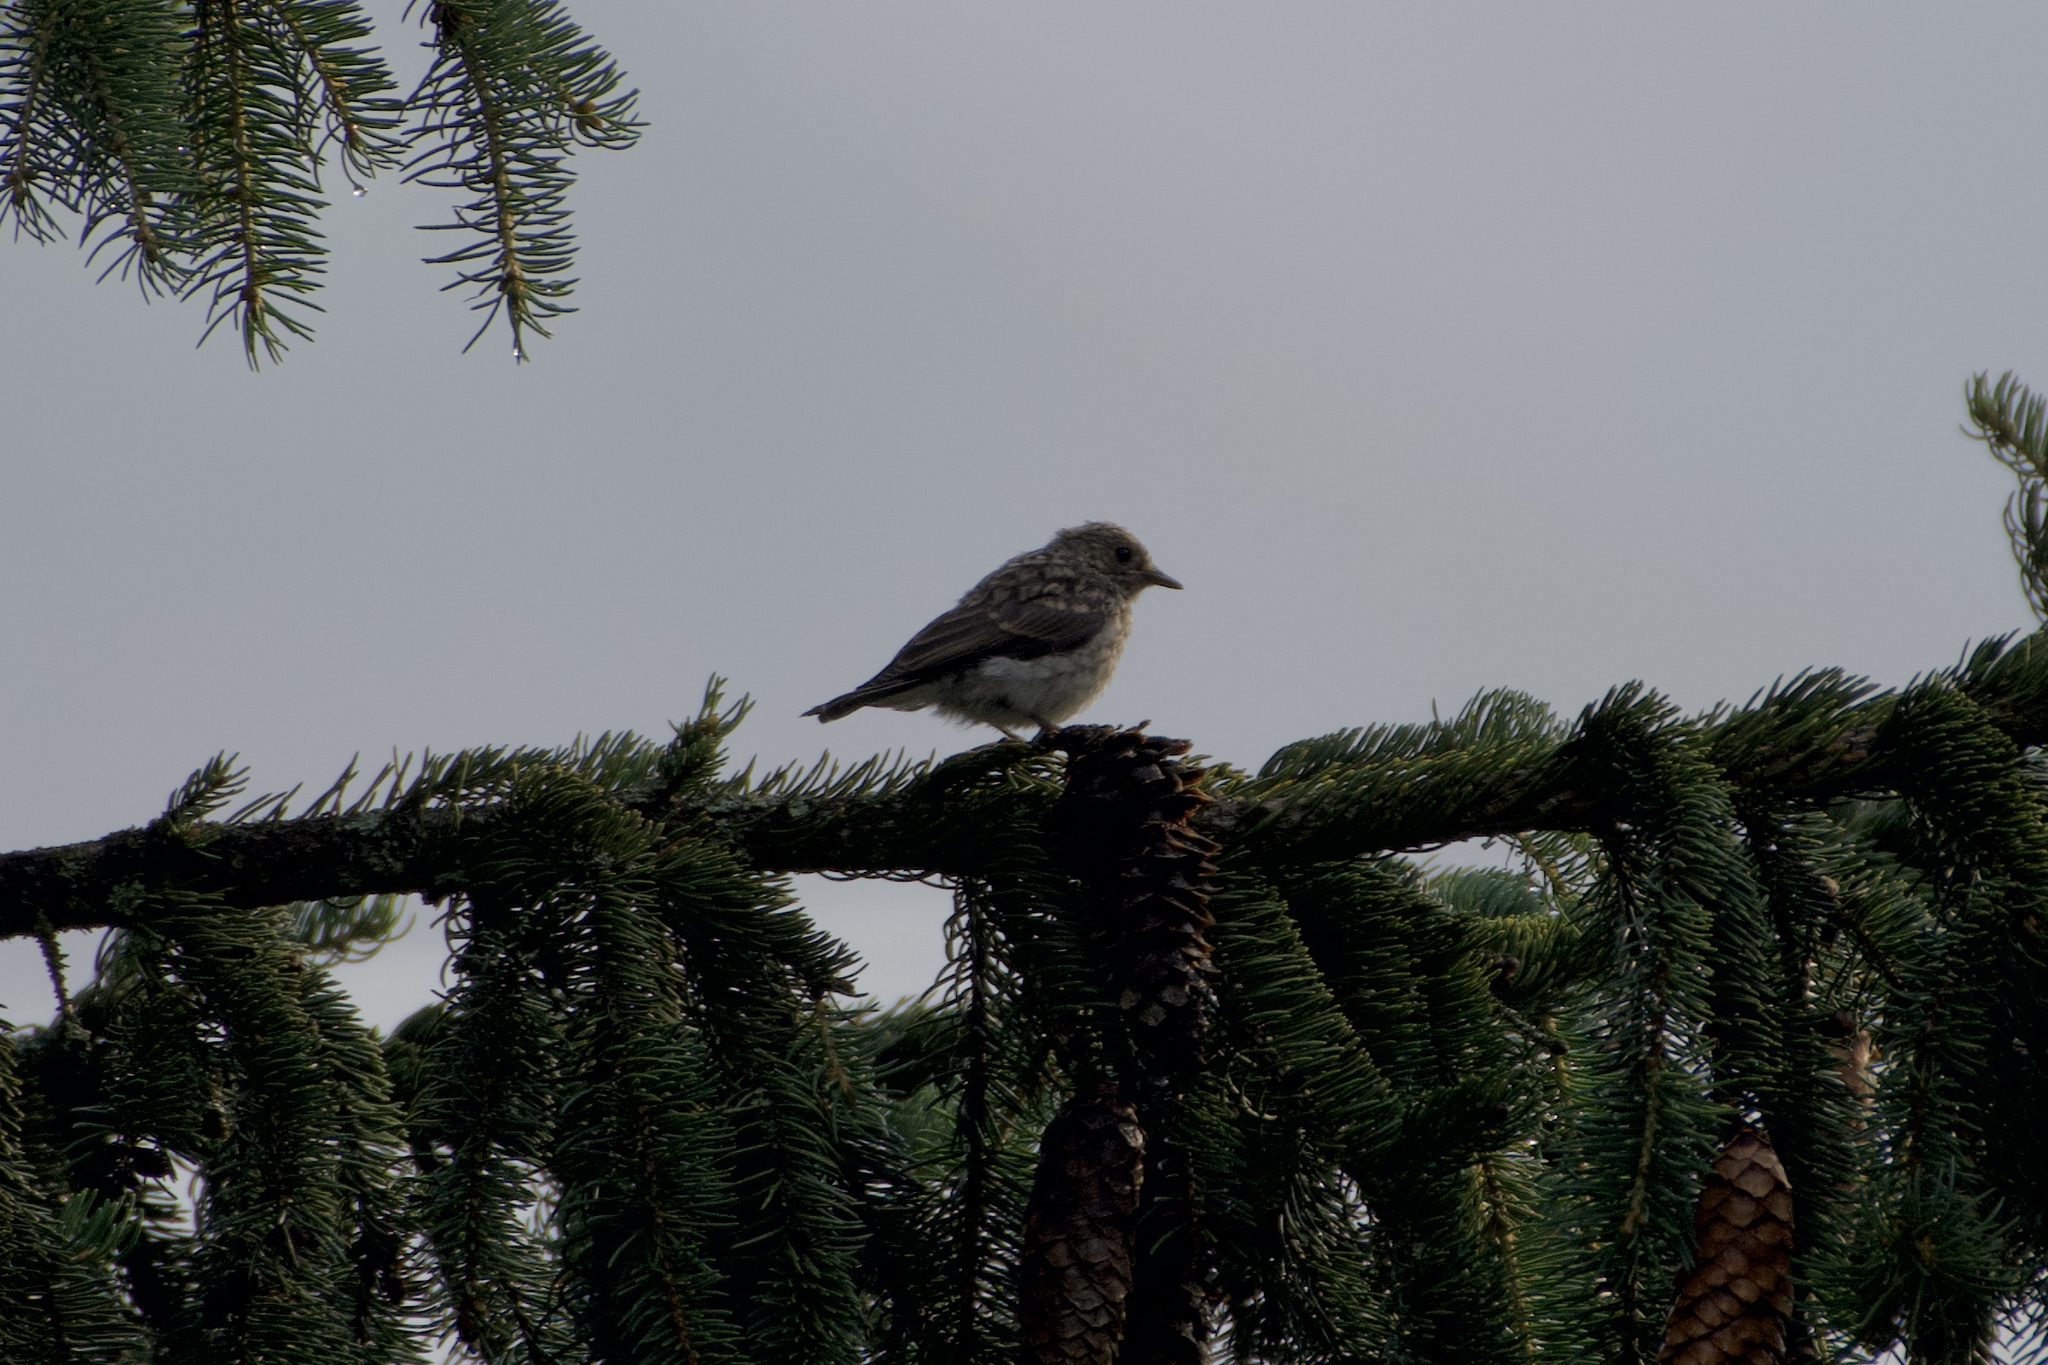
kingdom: Animalia
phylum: Chordata
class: Aves
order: Passeriformes
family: Muscicapidae
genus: Muscicapa
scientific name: Muscicapa striata
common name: Spotted flycatcher
